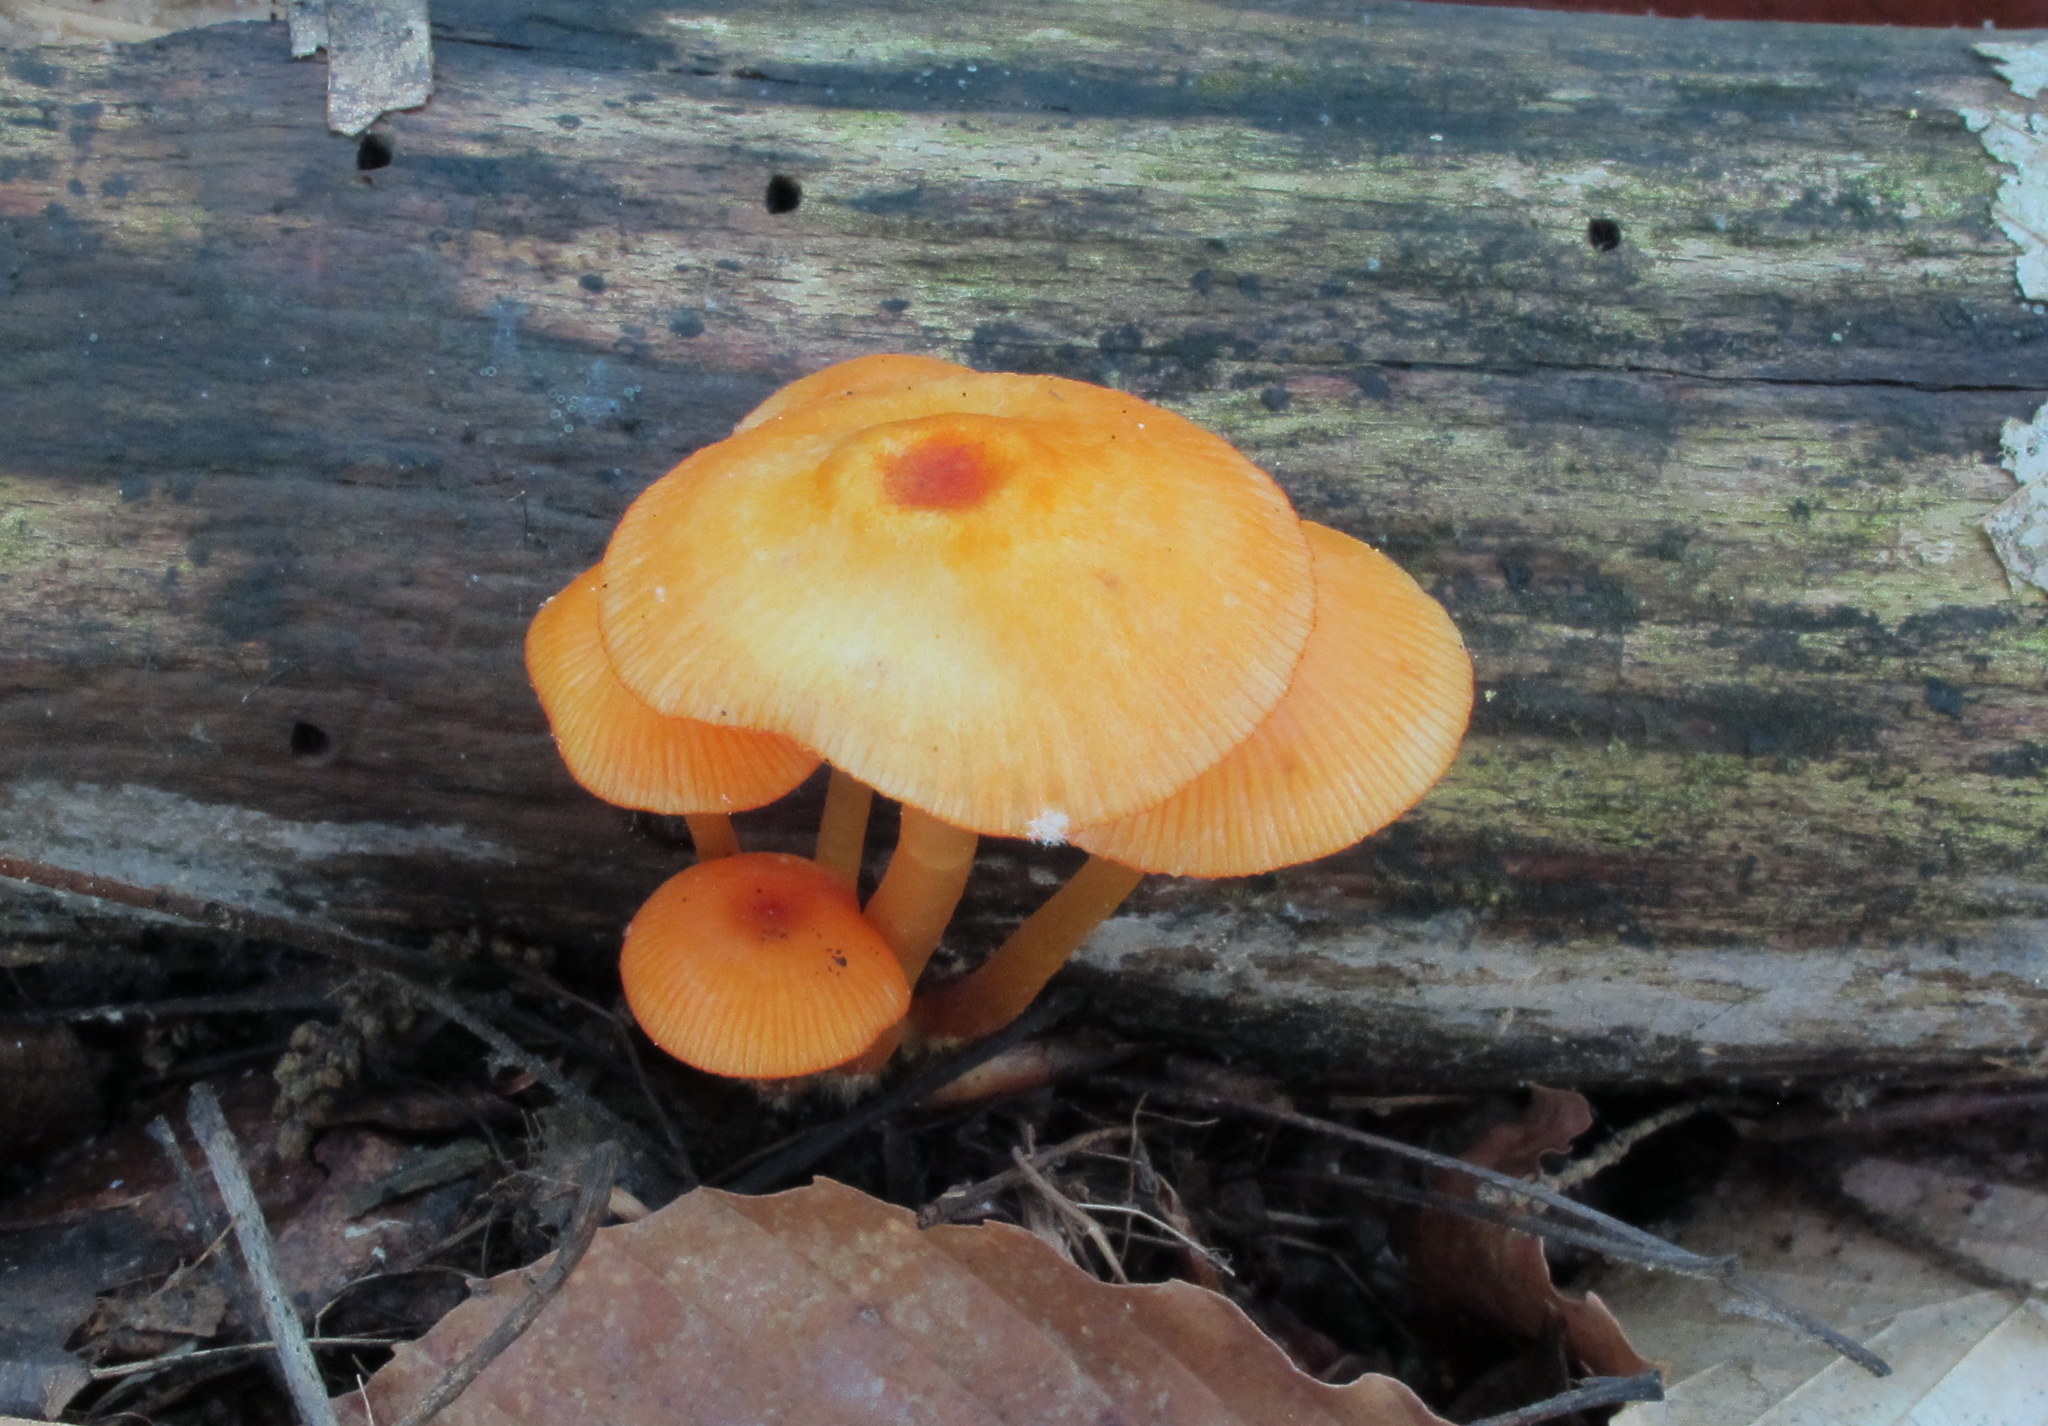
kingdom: Fungi
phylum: Basidiomycota
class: Agaricomycetes
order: Agaricales
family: Mycenaceae
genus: Mycena
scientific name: Mycena leaiana
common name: Orange mycena
